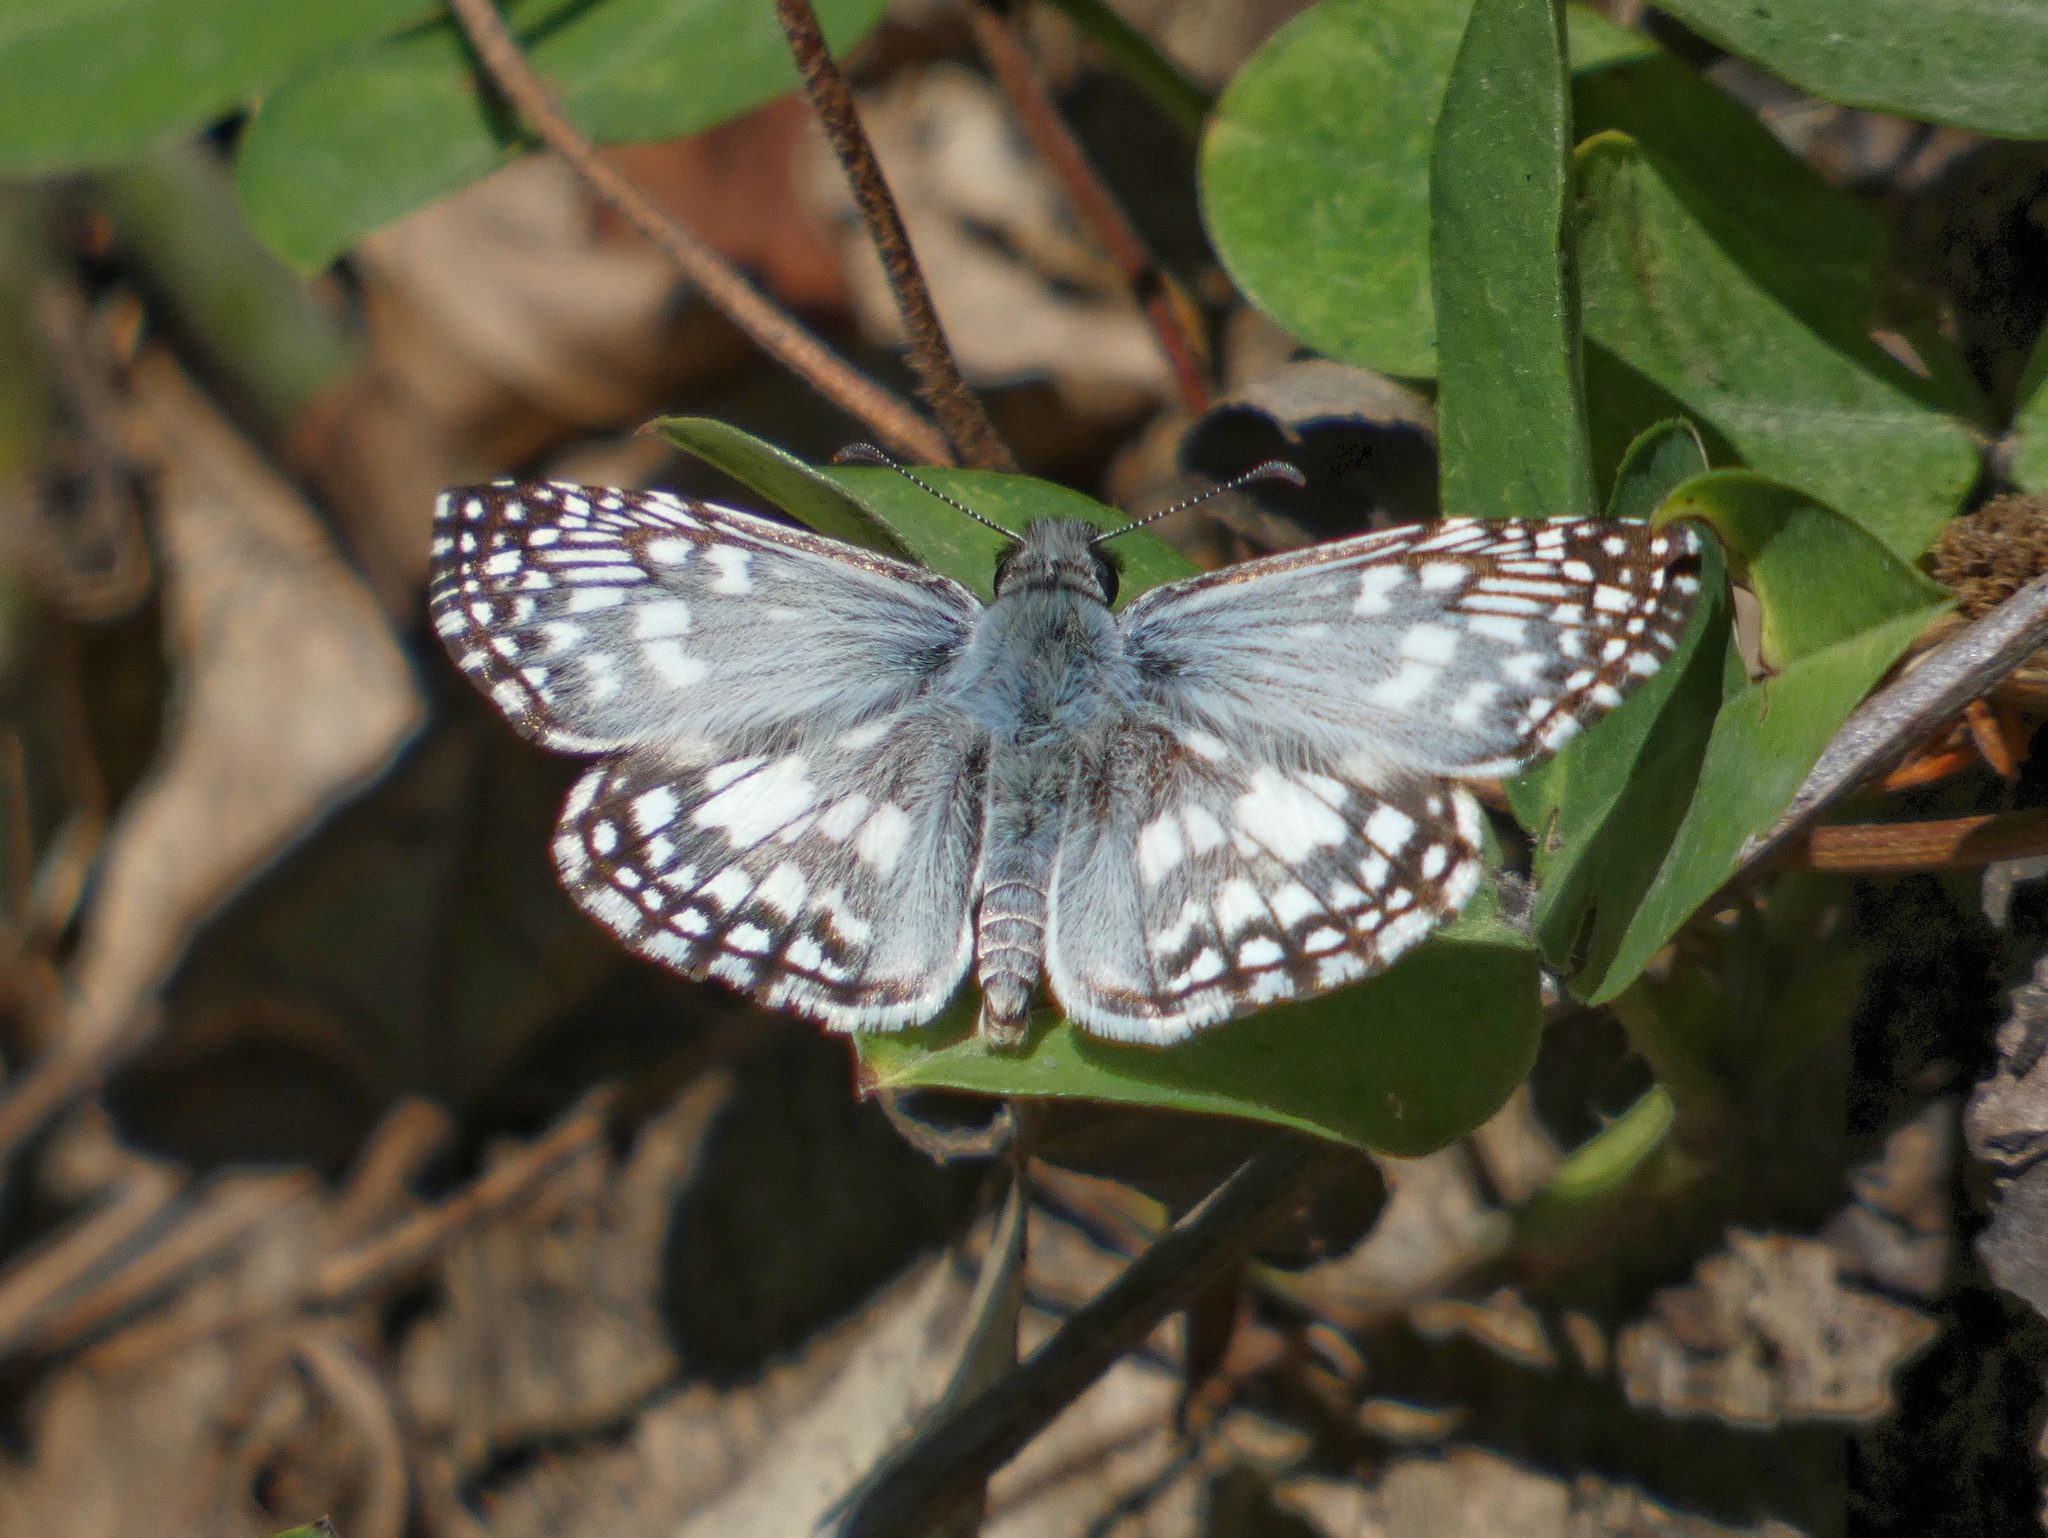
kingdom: Animalia
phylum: Arthropoda
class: Insecta
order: Lepidoptera
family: Hesperiidae
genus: Pyrgus
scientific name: Pyrgus oileus
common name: Tropical checkered-skipper
